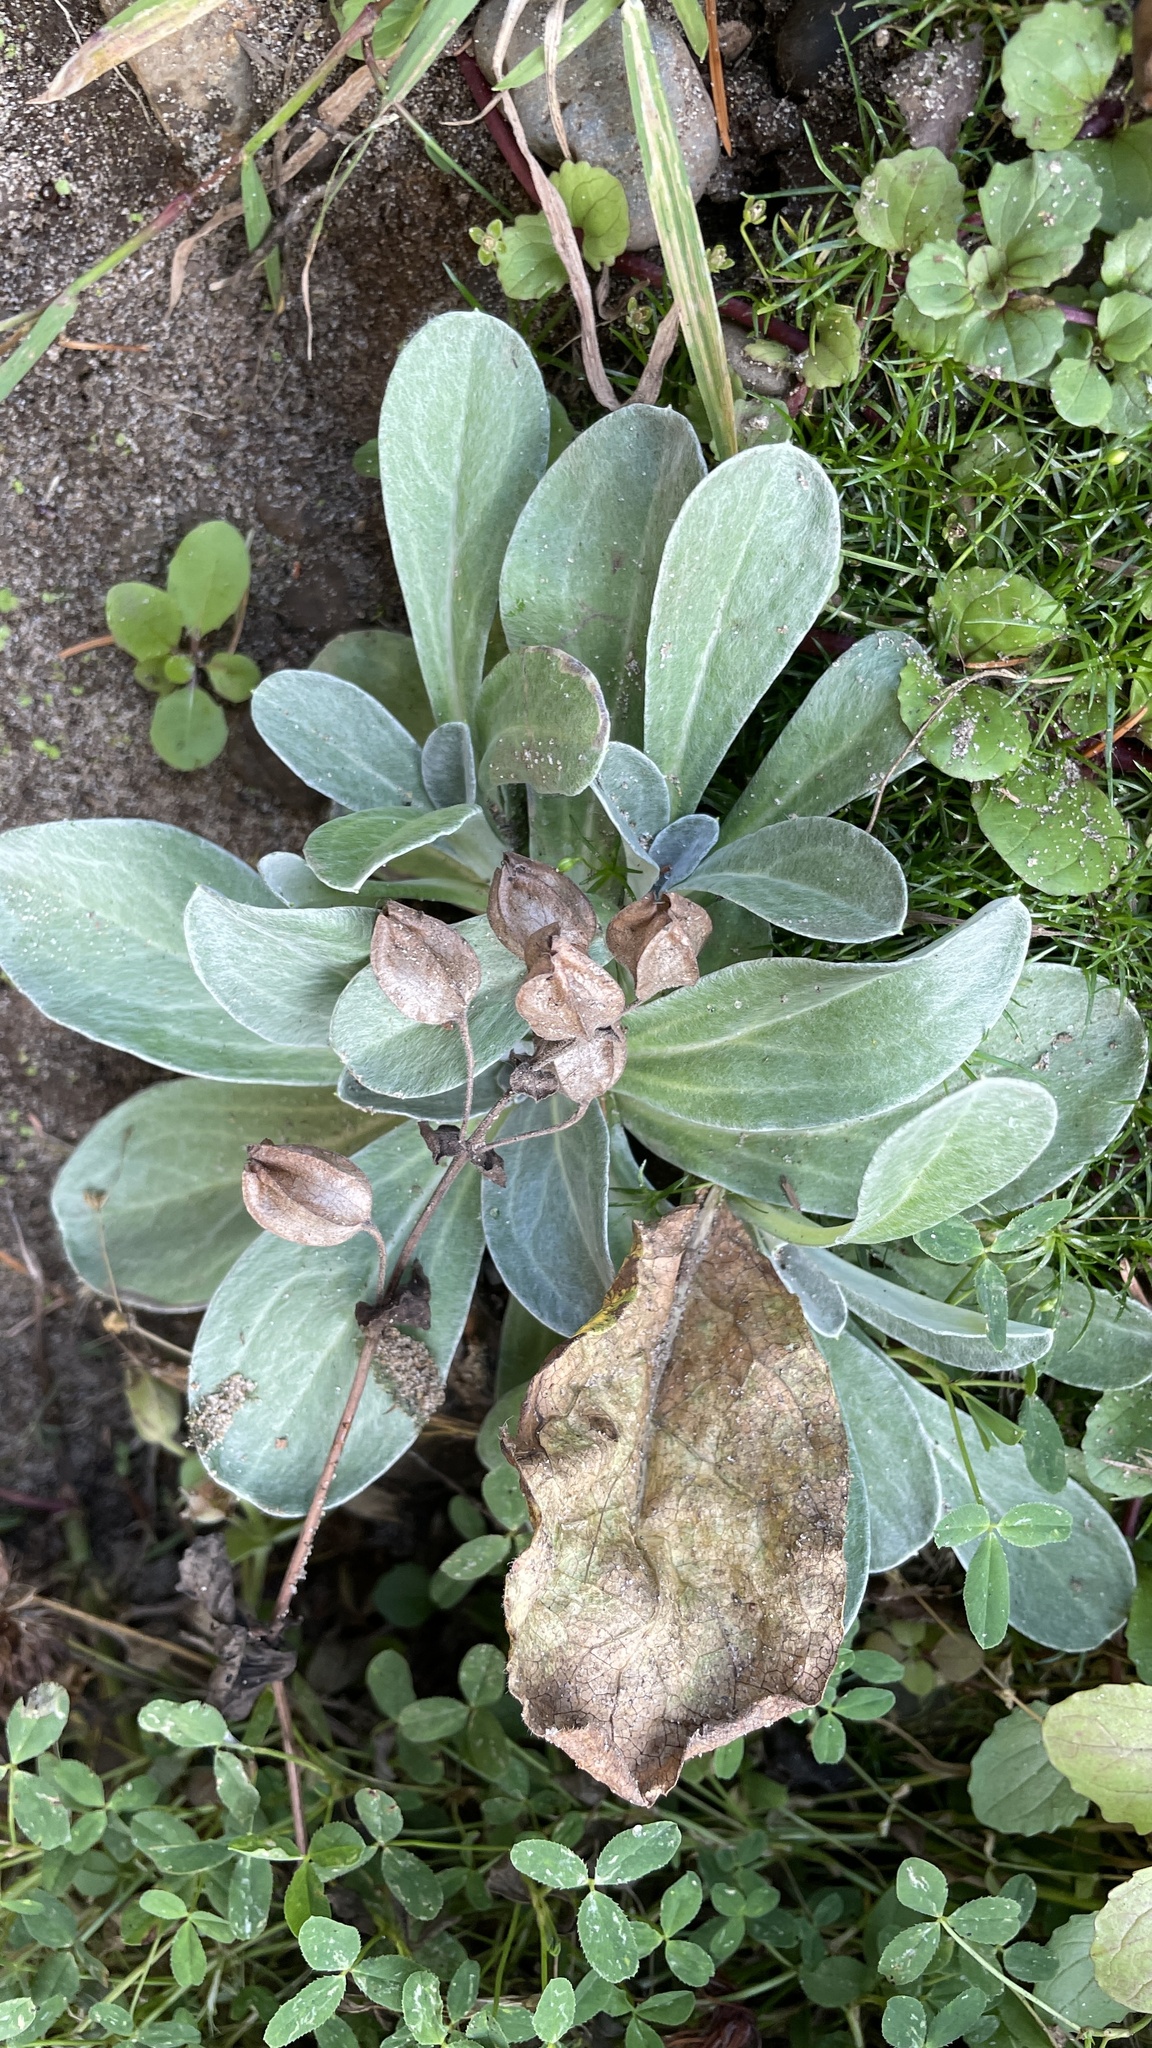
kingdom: Plantae
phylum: Tracheophyta
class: Magnoliopsida
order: Asterales
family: Asteraceae
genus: Gamochaeta
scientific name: Gamochaeta ustulata
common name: Pacific cudweed
